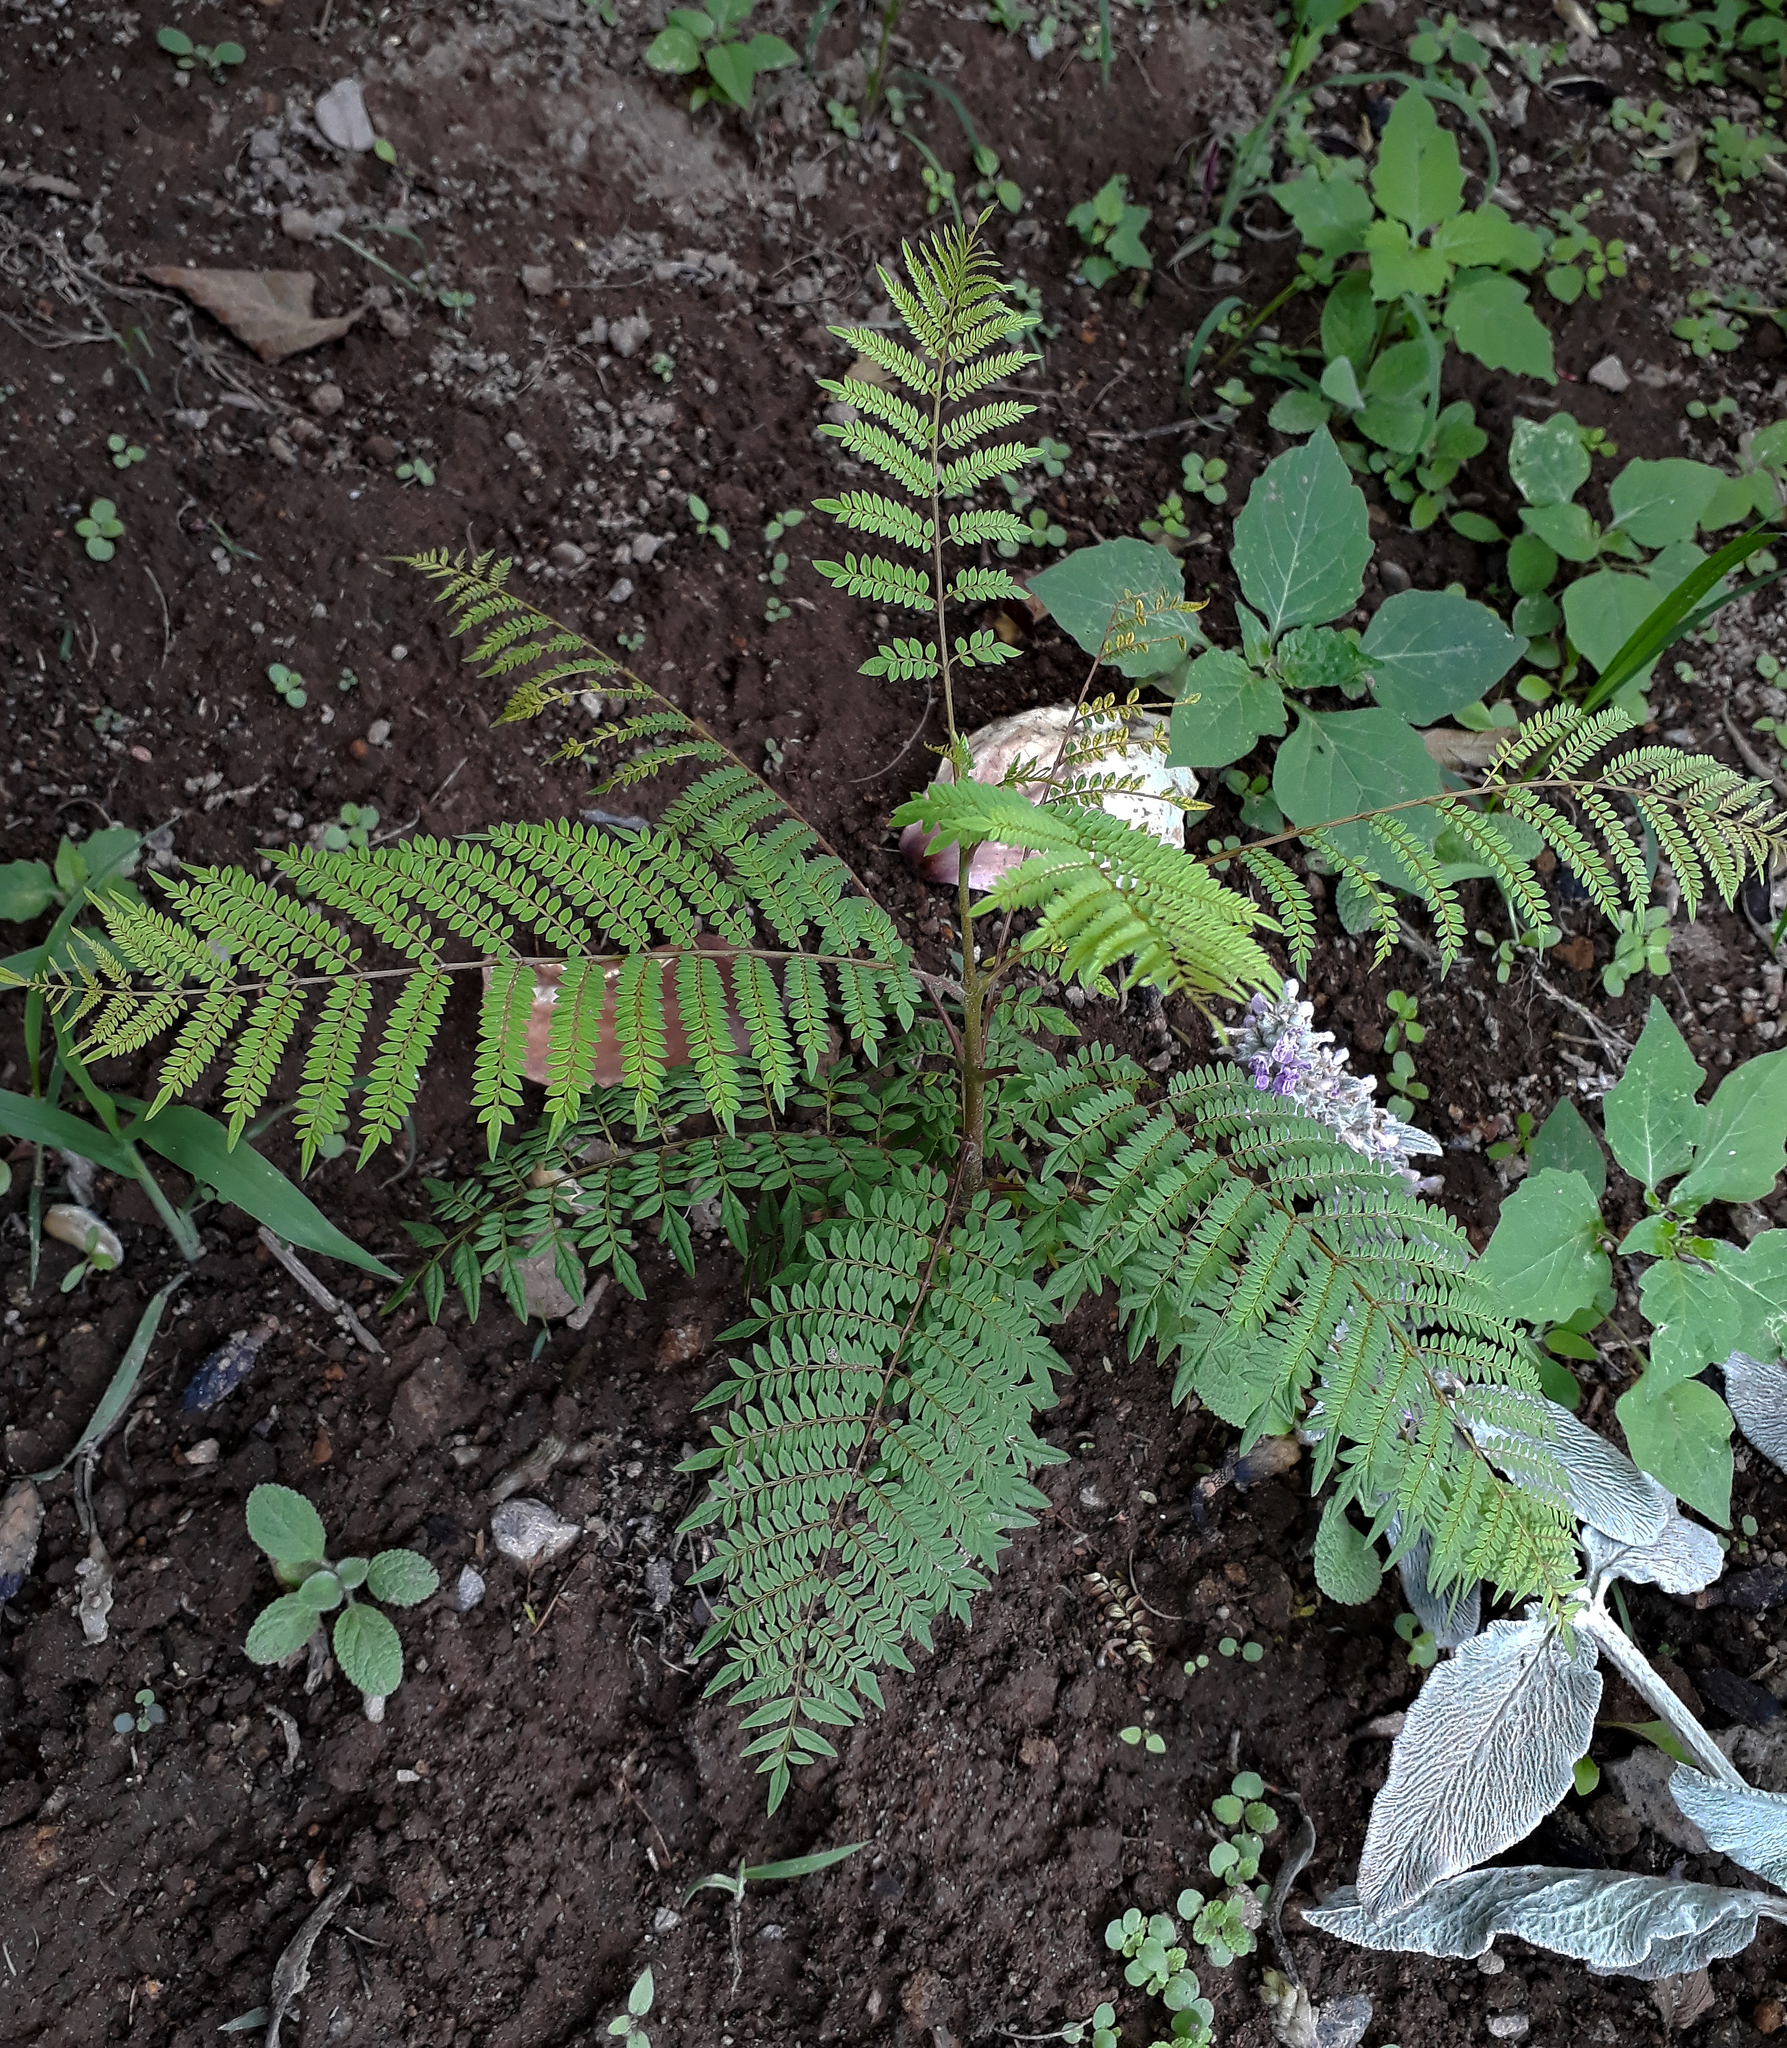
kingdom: Plantae
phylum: Tracheophyta
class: Magnoliopsida
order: Lamiales
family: Bignoniaceae
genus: Jacaranda
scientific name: Jacaranda mimosifolia
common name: Black poui
